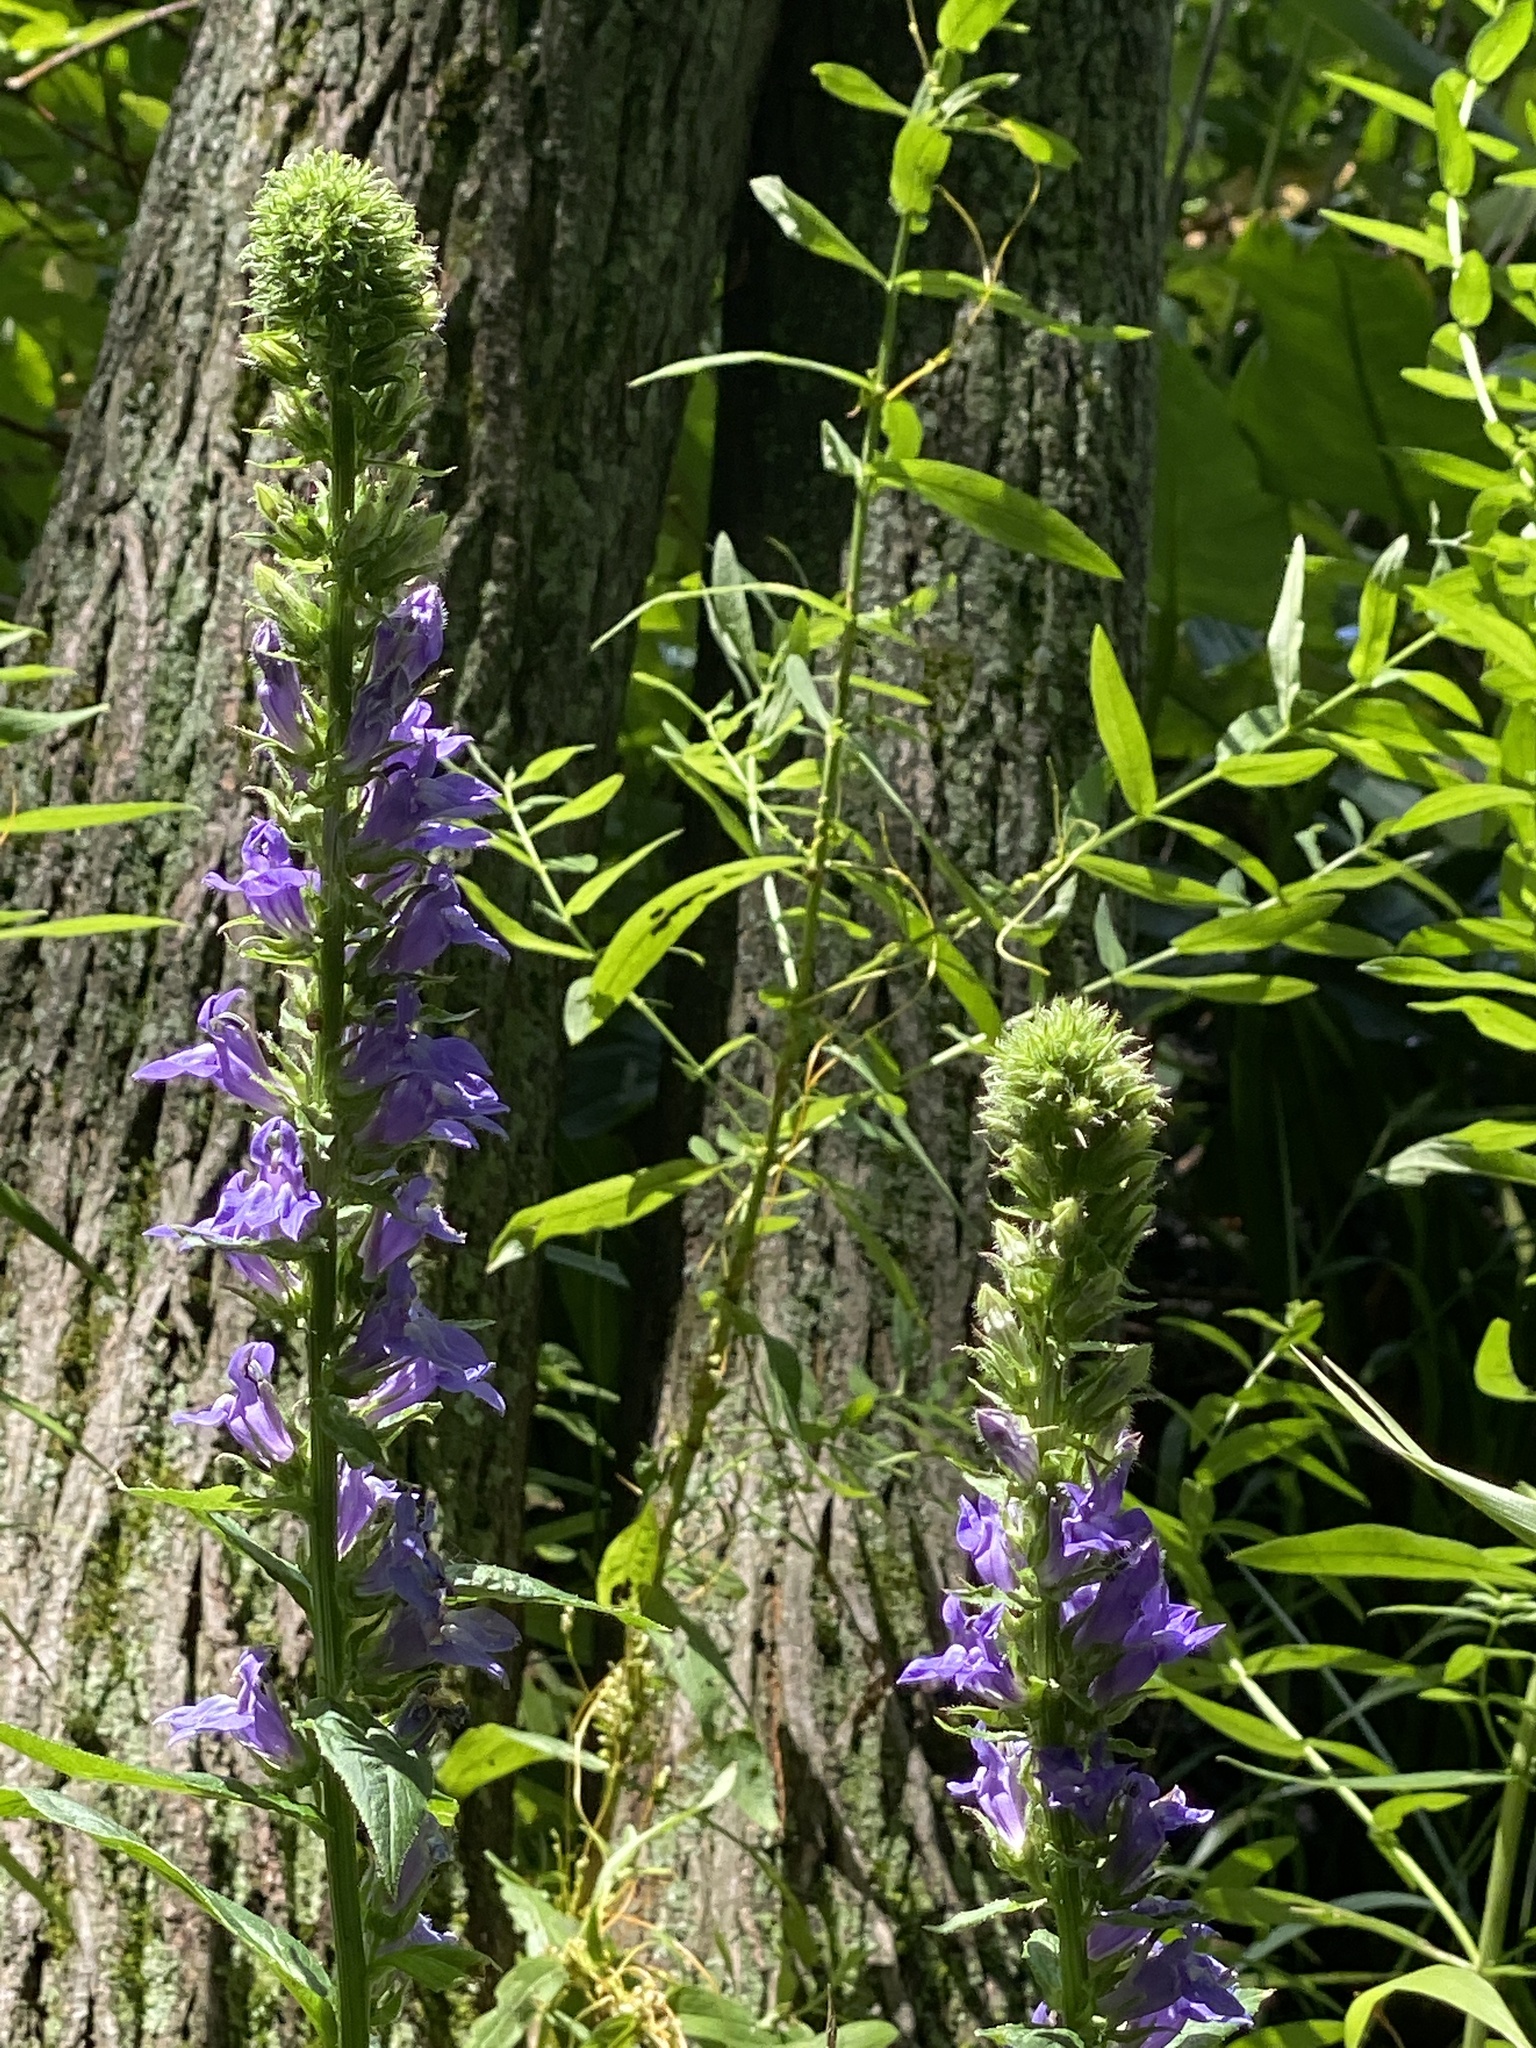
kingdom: Plantae
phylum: Tracheophyta
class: Magnoliopsida
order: Asterales
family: Campanulaceae
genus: Lobelia
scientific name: Lobelia siphilitica
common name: Great lobelia
